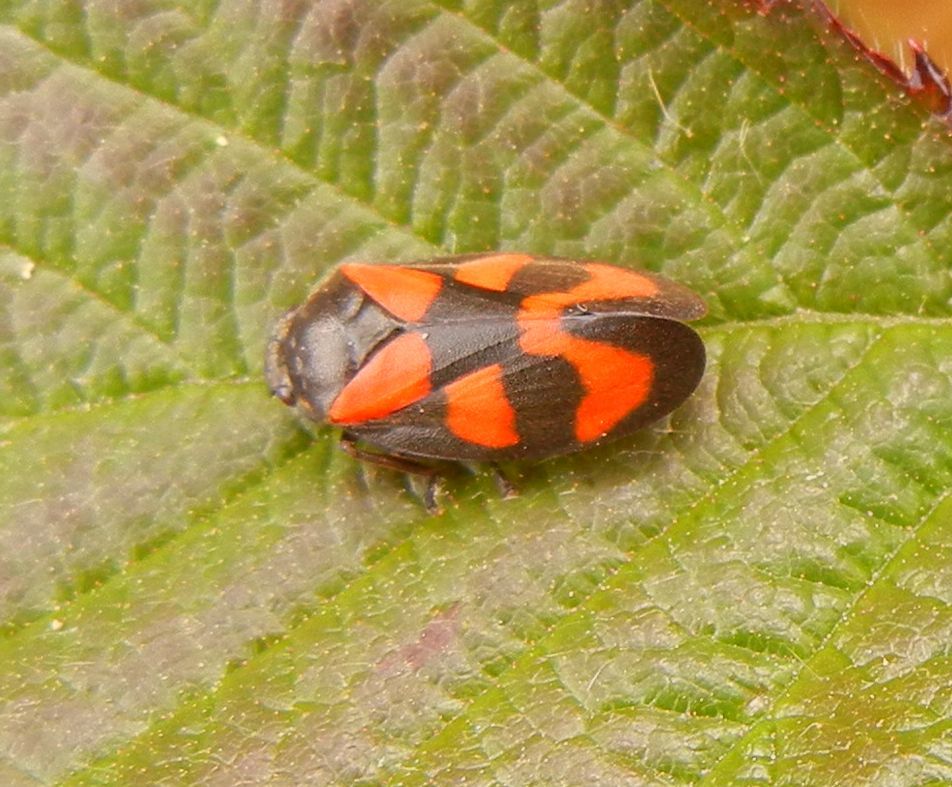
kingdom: Animalia
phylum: Arthropoda
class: Insecta
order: Hemiptera
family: Cercopidae
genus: Cercopis
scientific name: Cercopis vulnerata
